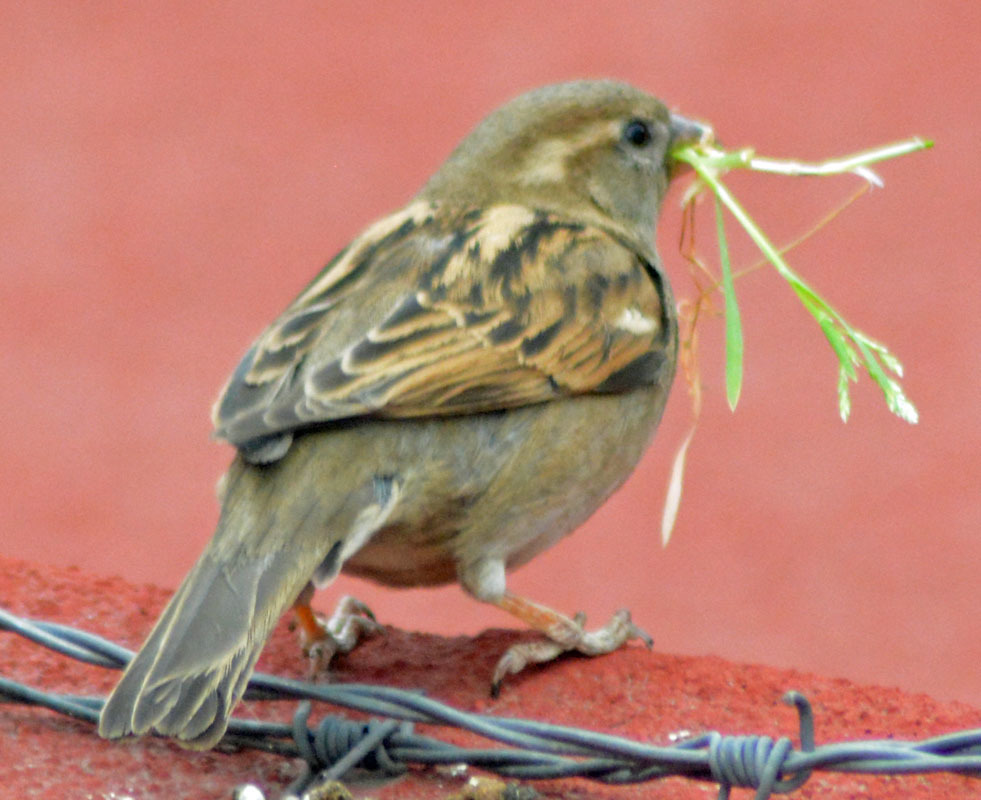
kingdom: Animalia
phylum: Chordata
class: Aves
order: Passeriformes
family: Passeridae
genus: Passer
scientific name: Passer domesticus
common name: House sparrow
